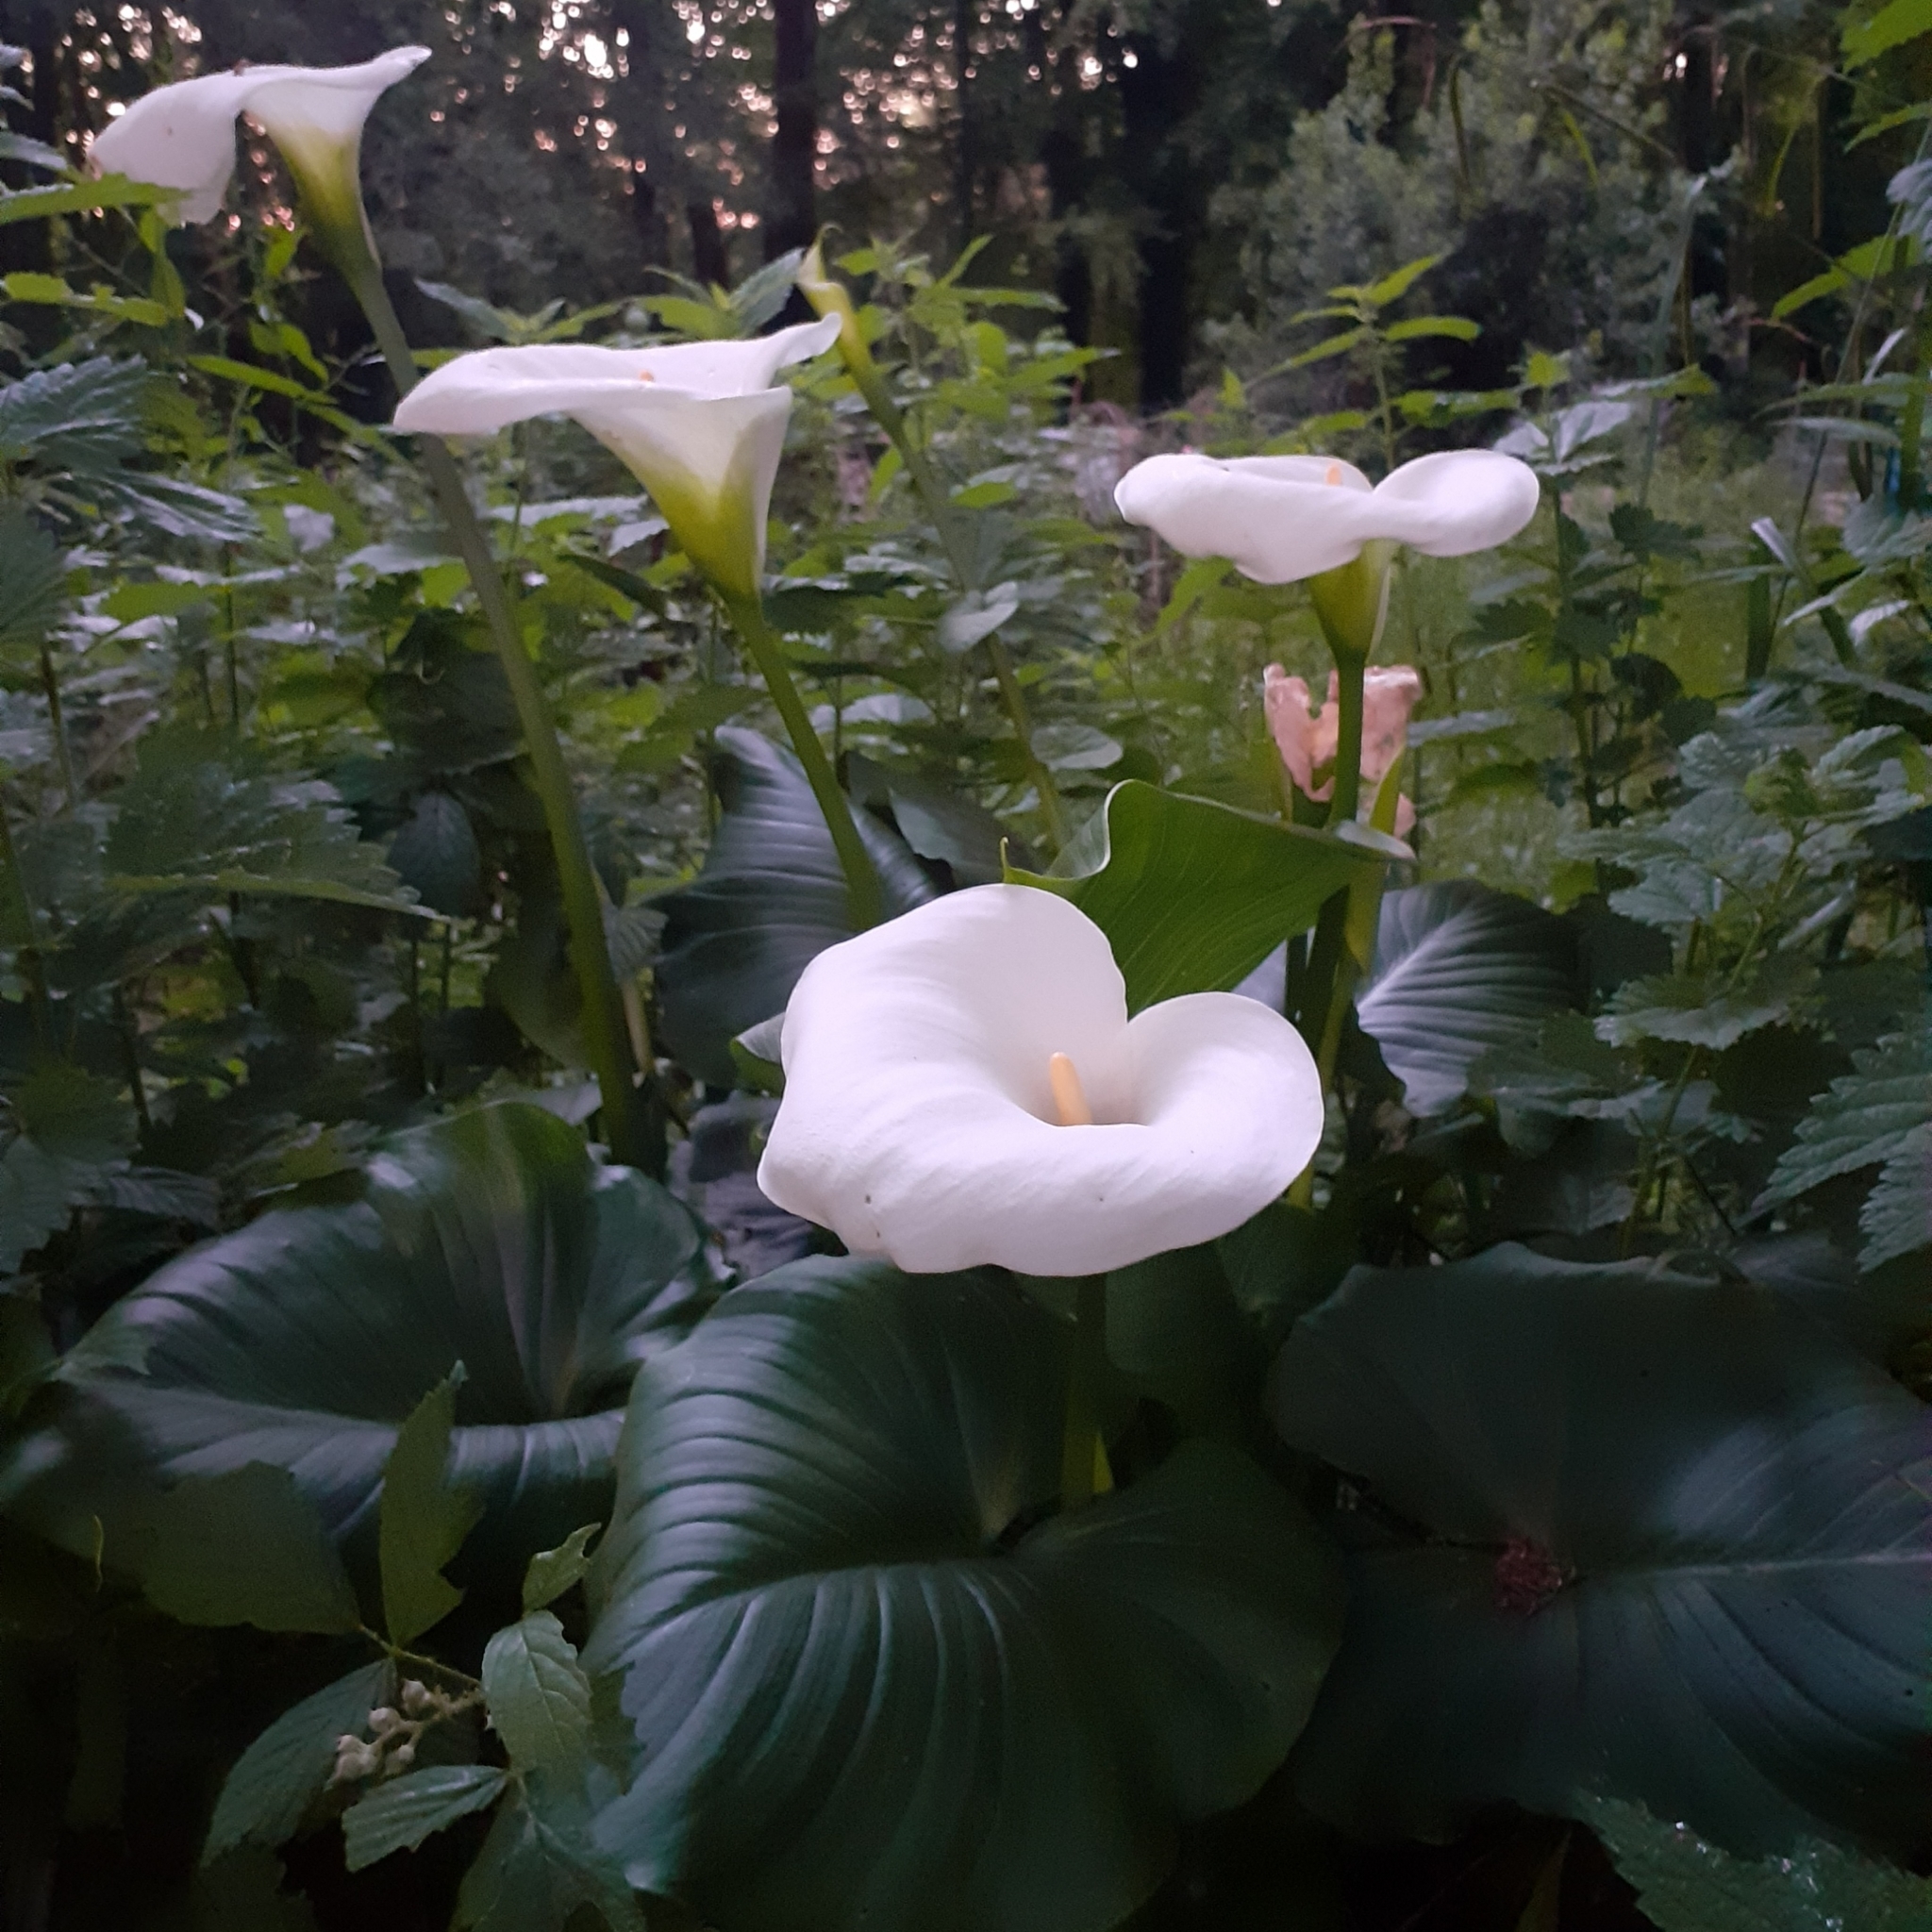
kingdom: Plantae
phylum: Tracheophyta
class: Liliopsida
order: Alismatales
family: Araceae
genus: Zantedeschia
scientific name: Zantedeschia aethiopica
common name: Altar-lily
